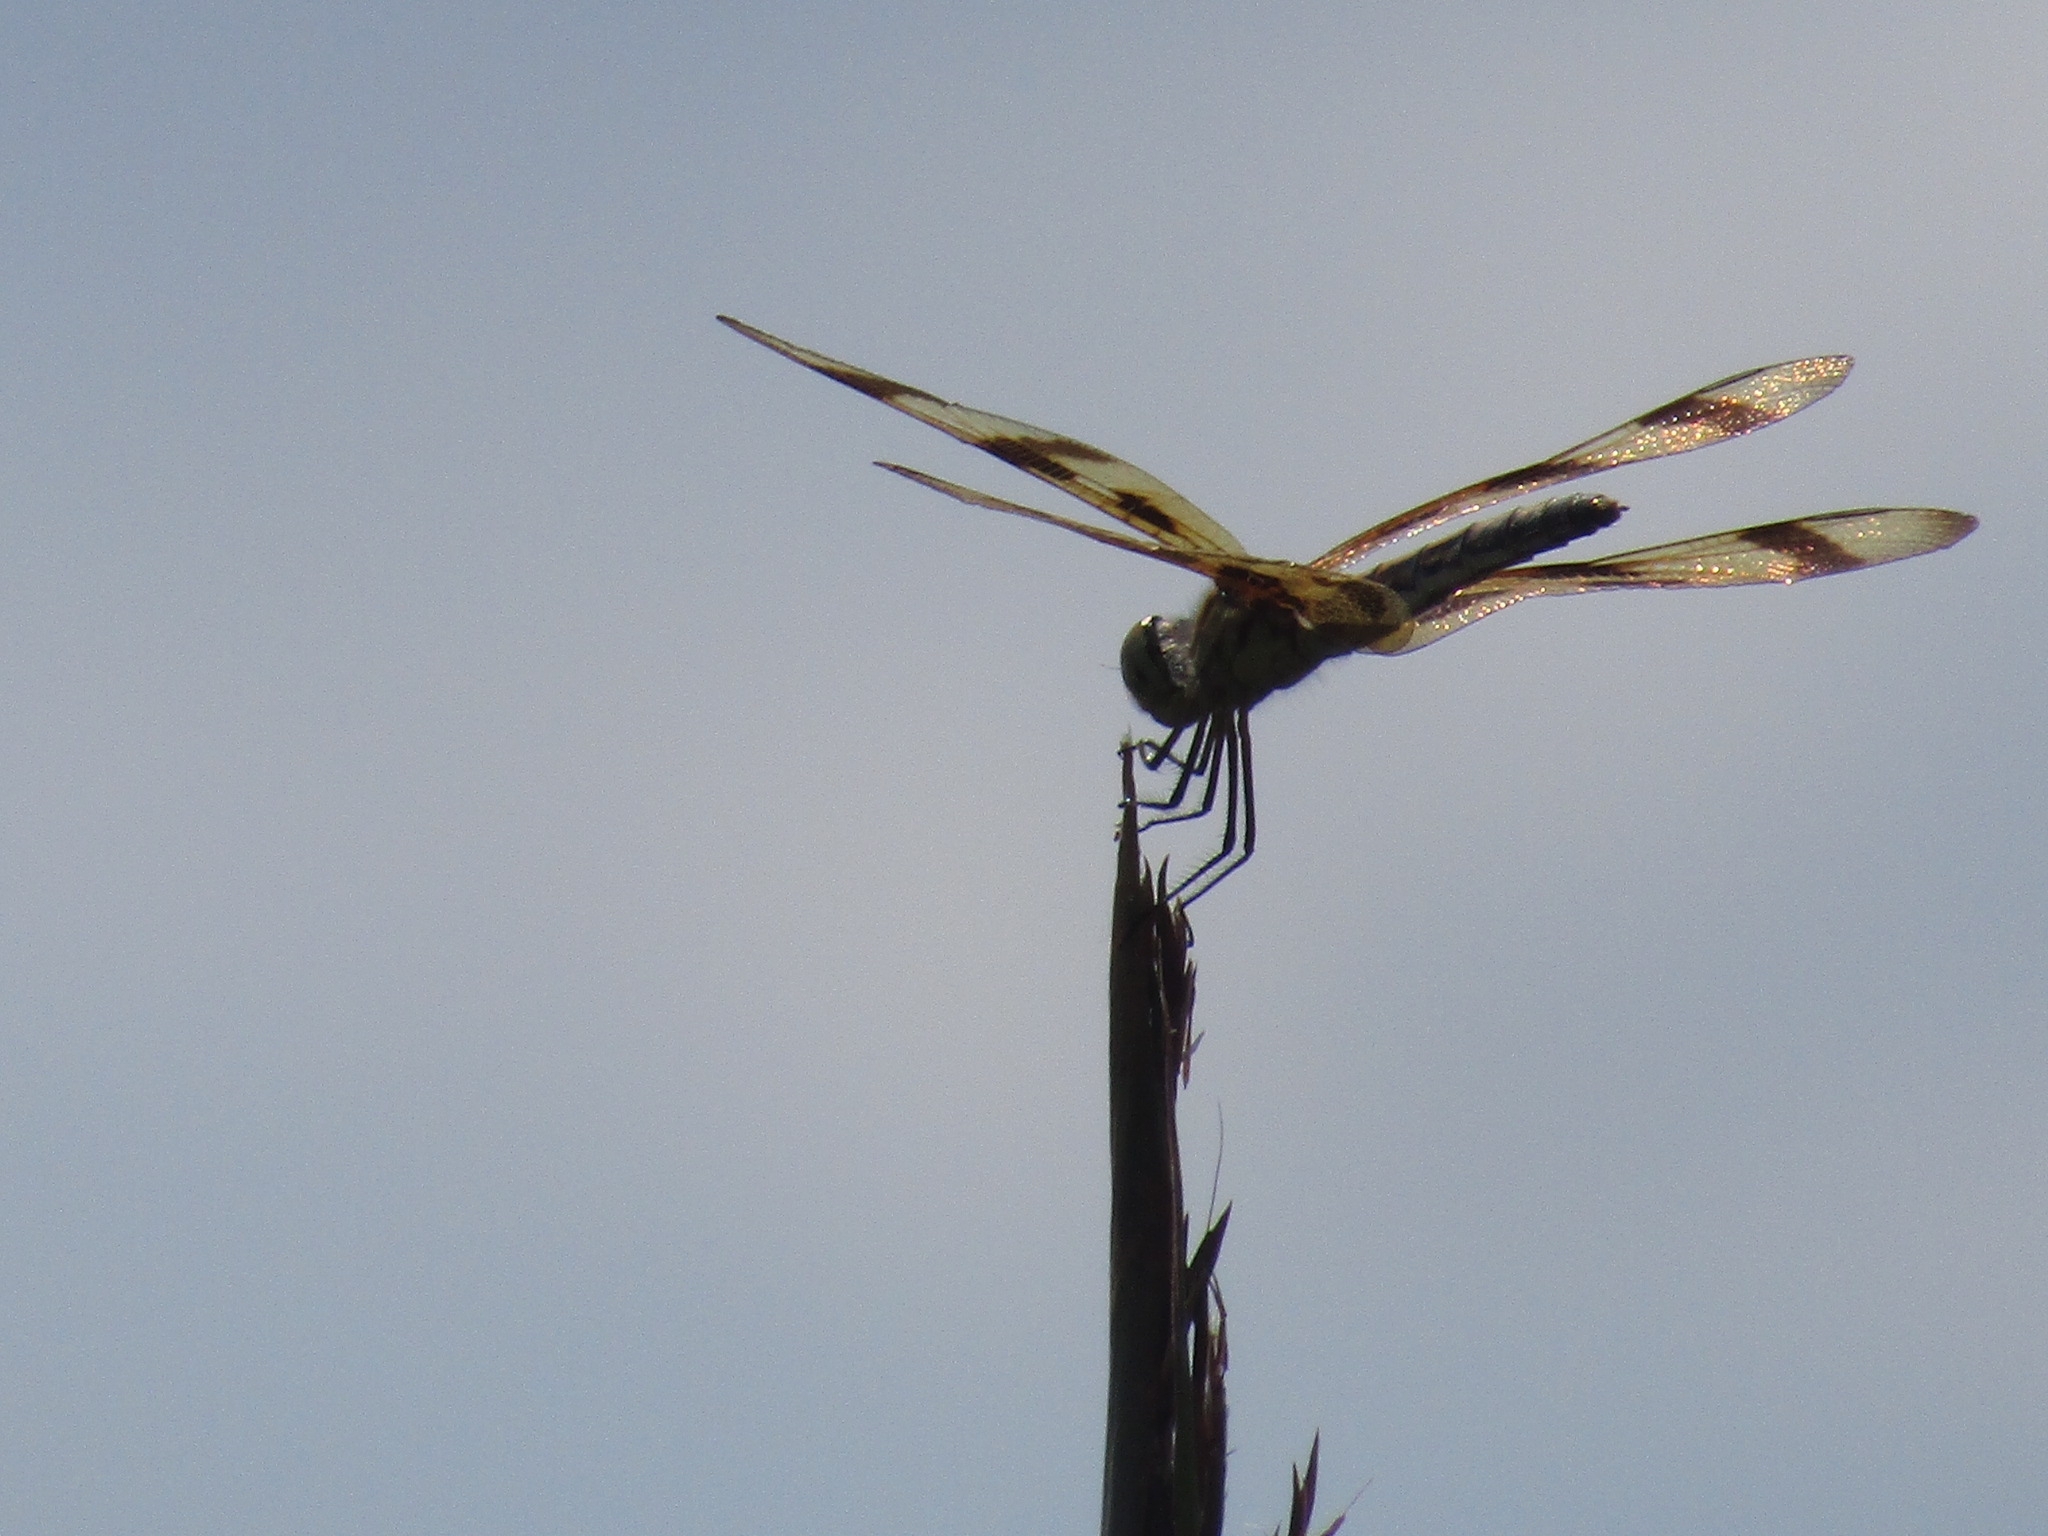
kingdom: Animalia
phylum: Arthropoda
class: Insecta
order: Odonata
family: Libellulidae
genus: Celithemis
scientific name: Celithemis eponina
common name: Halloween pennant
